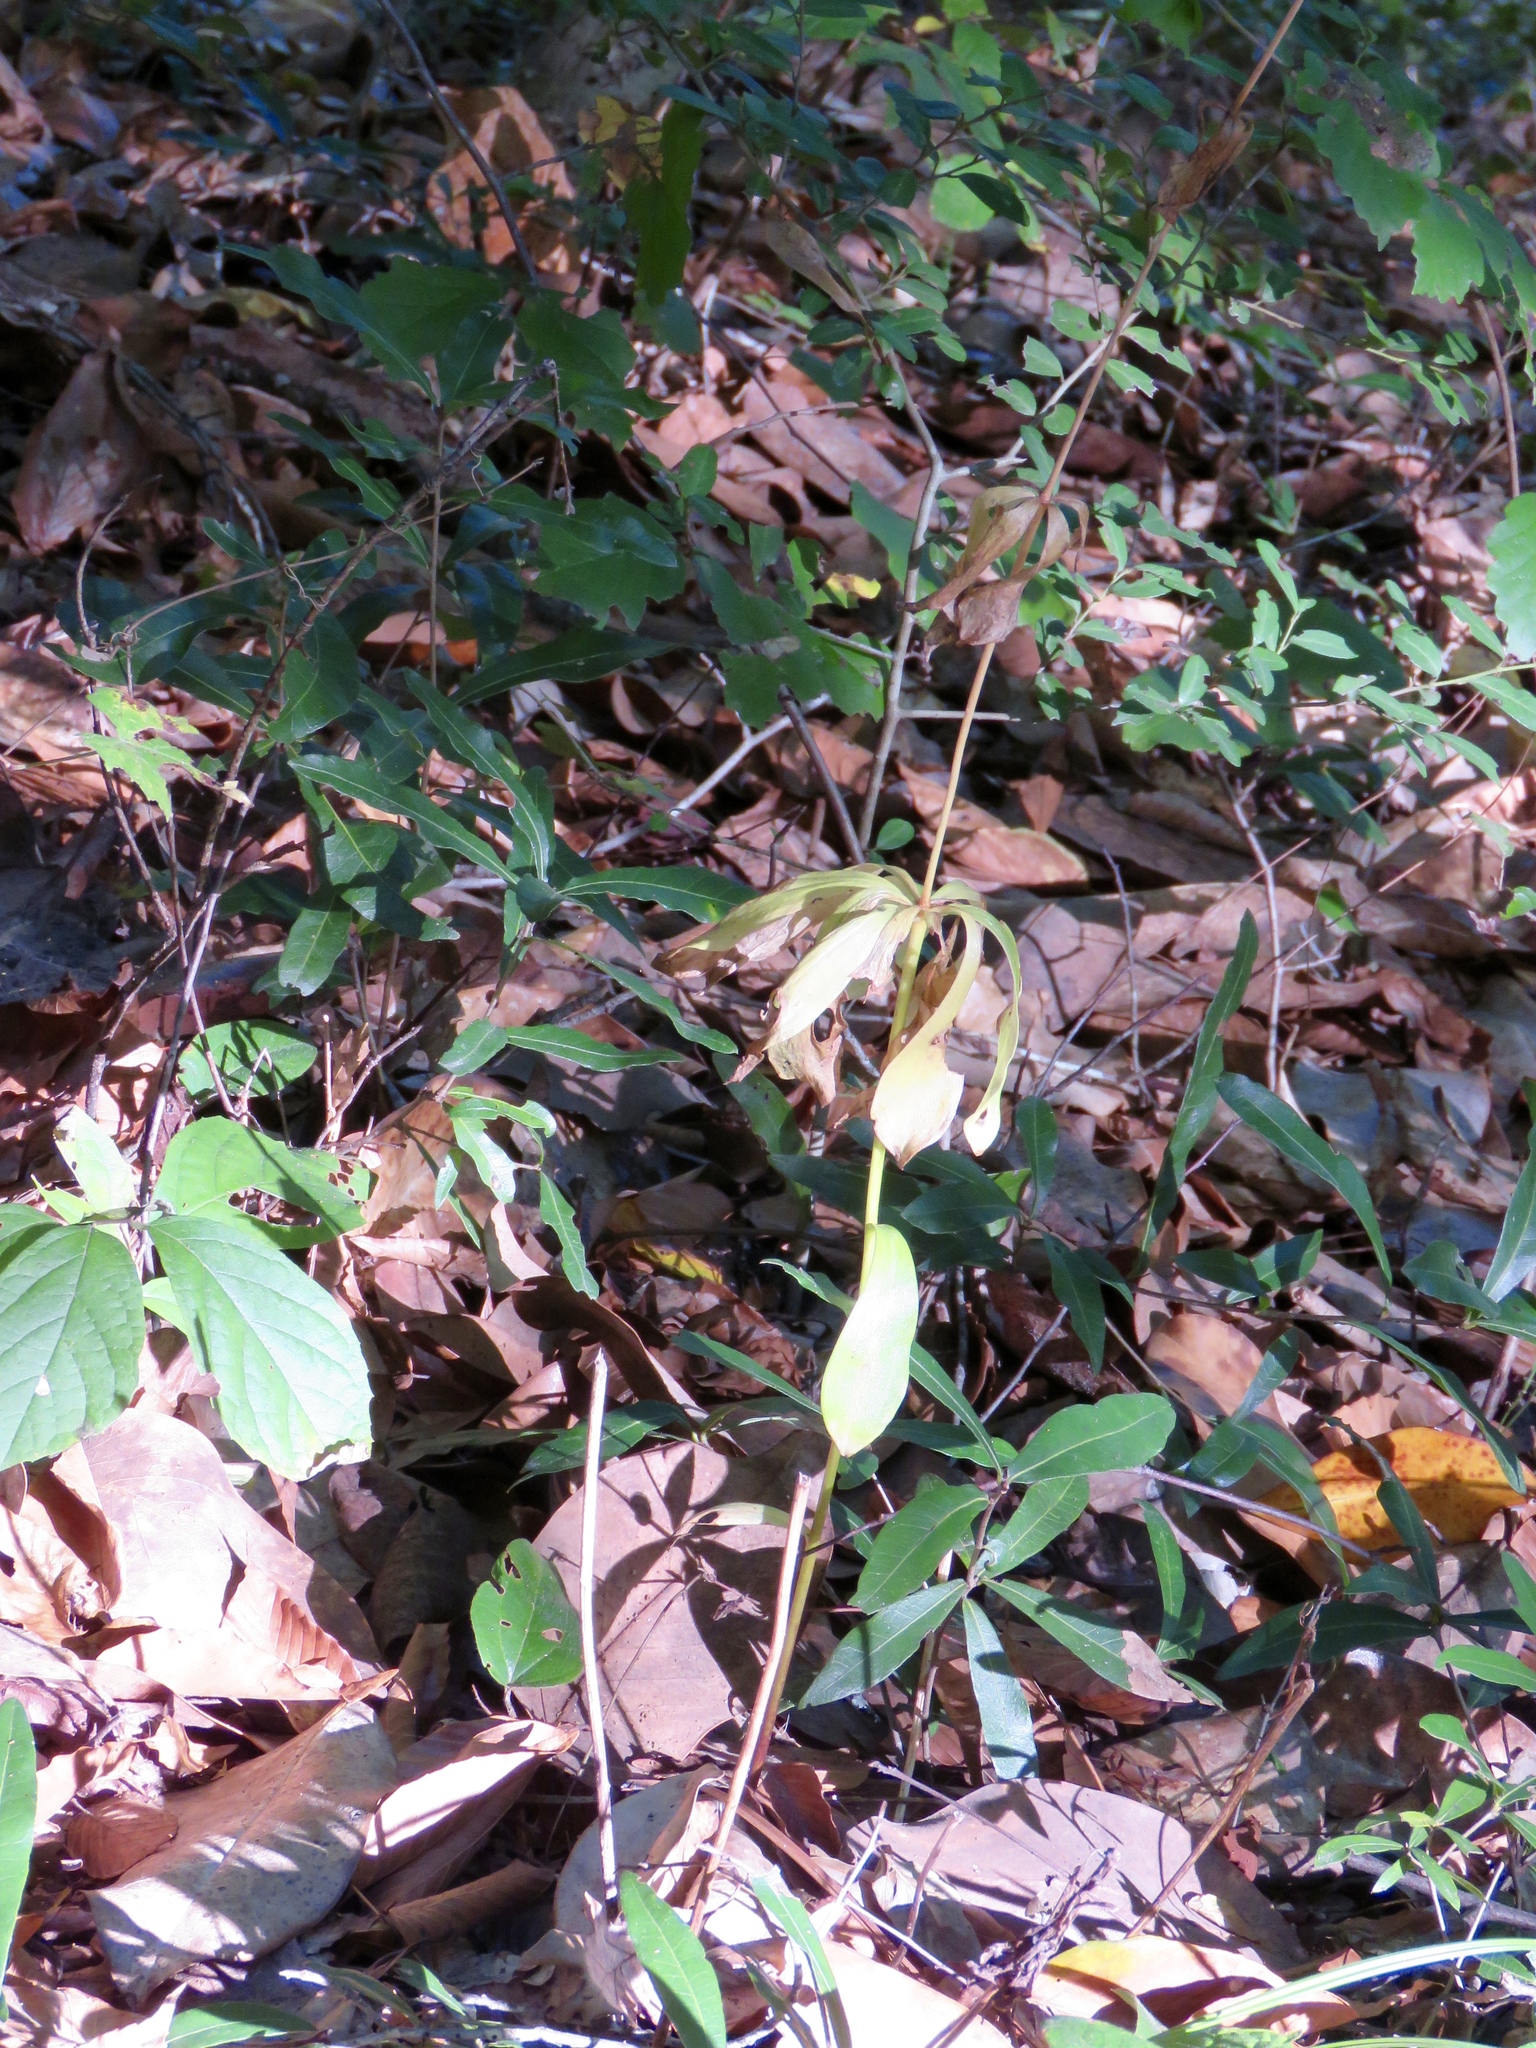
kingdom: Plantae
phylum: Tracheophyta
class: Liliopsida
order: Liliales
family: Liliaceae
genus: Lilium
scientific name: Lilium michauxii
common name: Carolina lily
